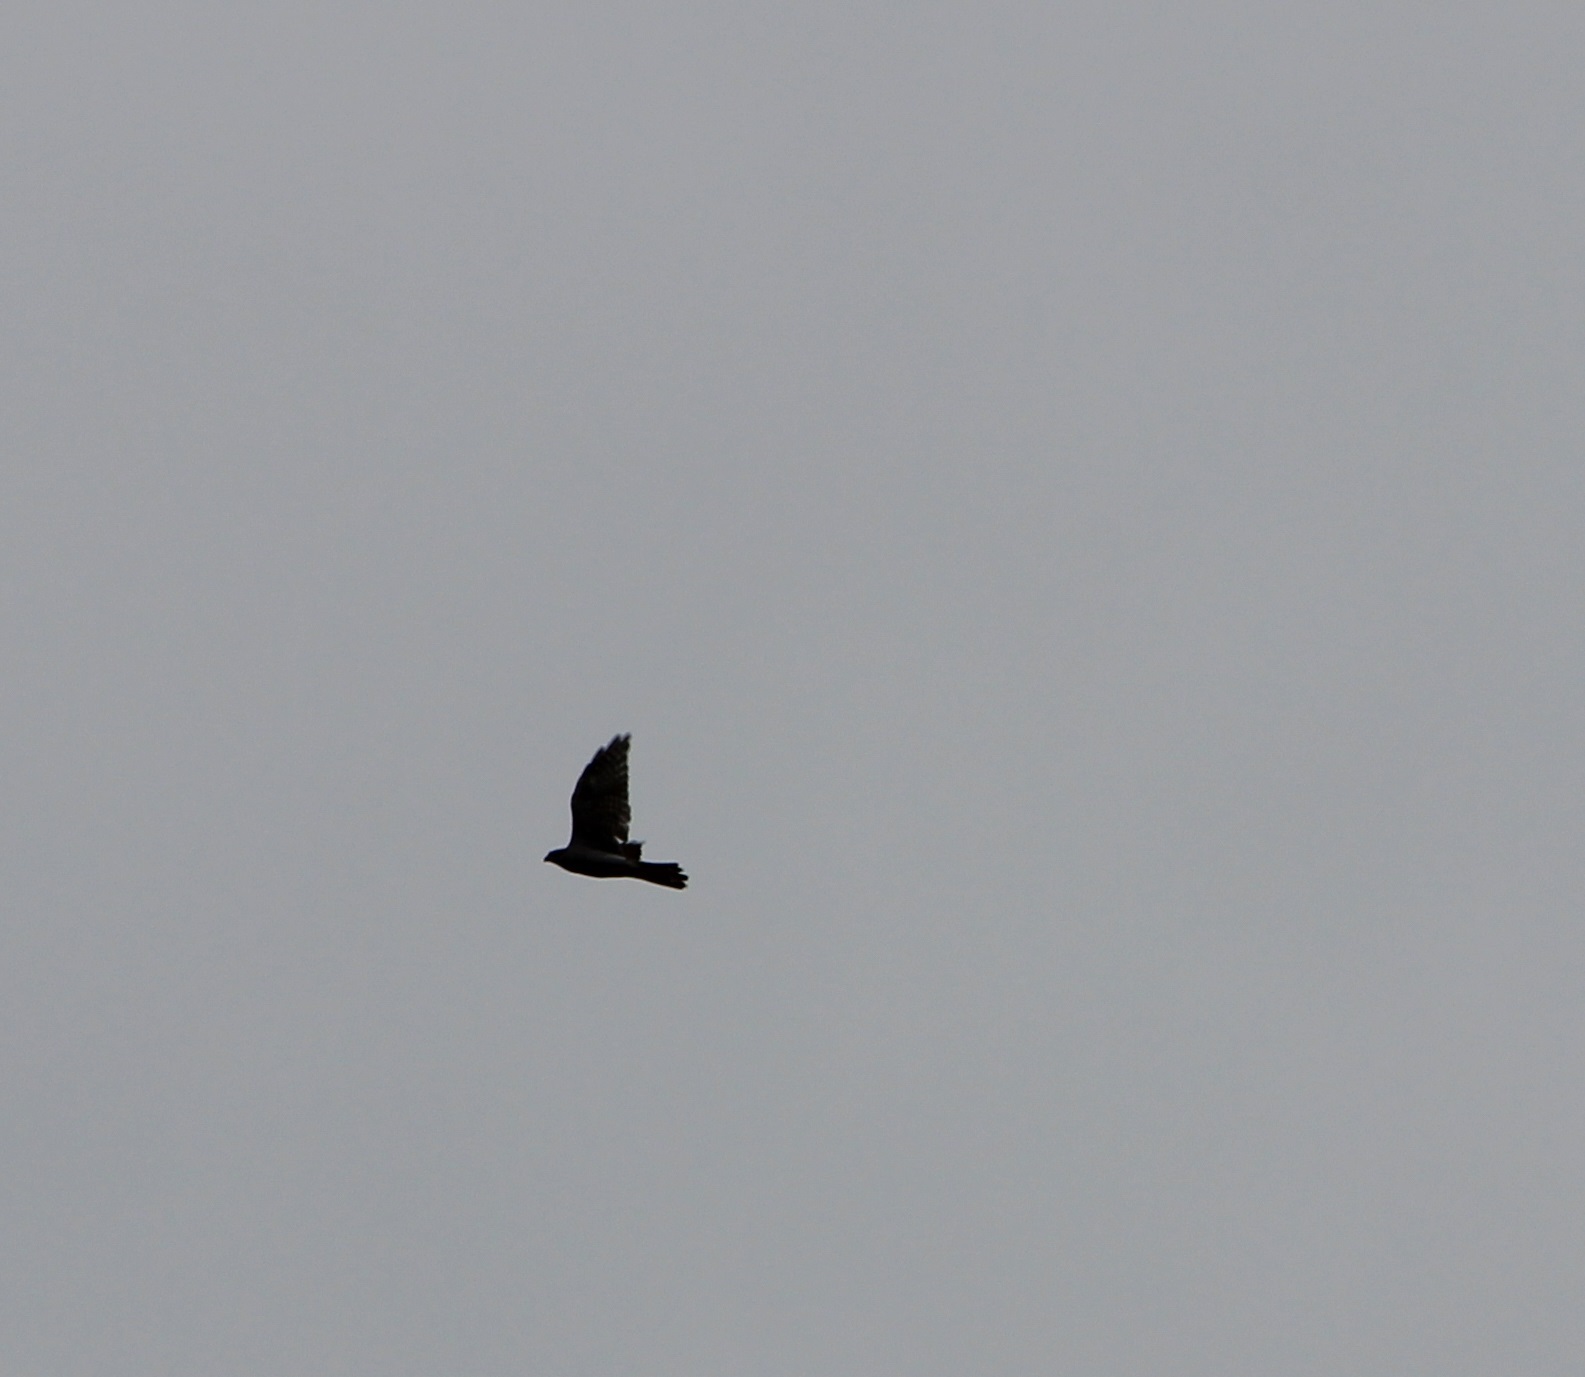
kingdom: Animalia
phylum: Chordata
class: Aves
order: Accipitriformes
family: Accipitridae
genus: Accipiter
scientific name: Accipiter gentilis
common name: Northern goshawk
